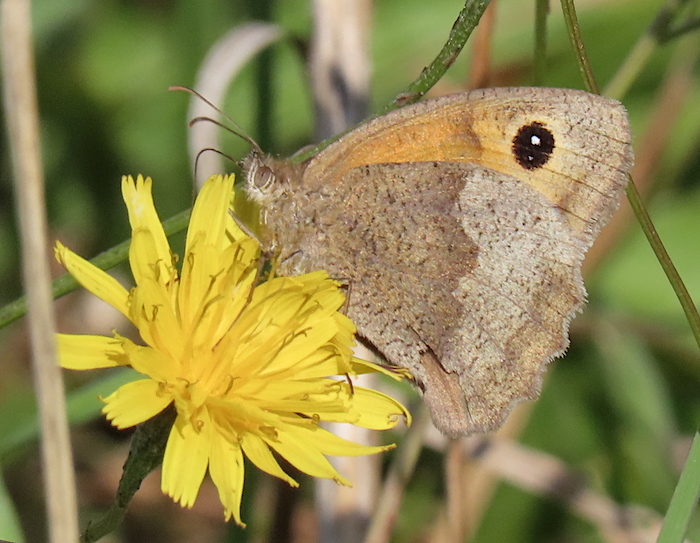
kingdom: Animalia
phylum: Arthropoda
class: Insecta
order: Lepidoptera
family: Nymphalidae
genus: Maniola
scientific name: Maniola jurtina
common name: Meadow brown
